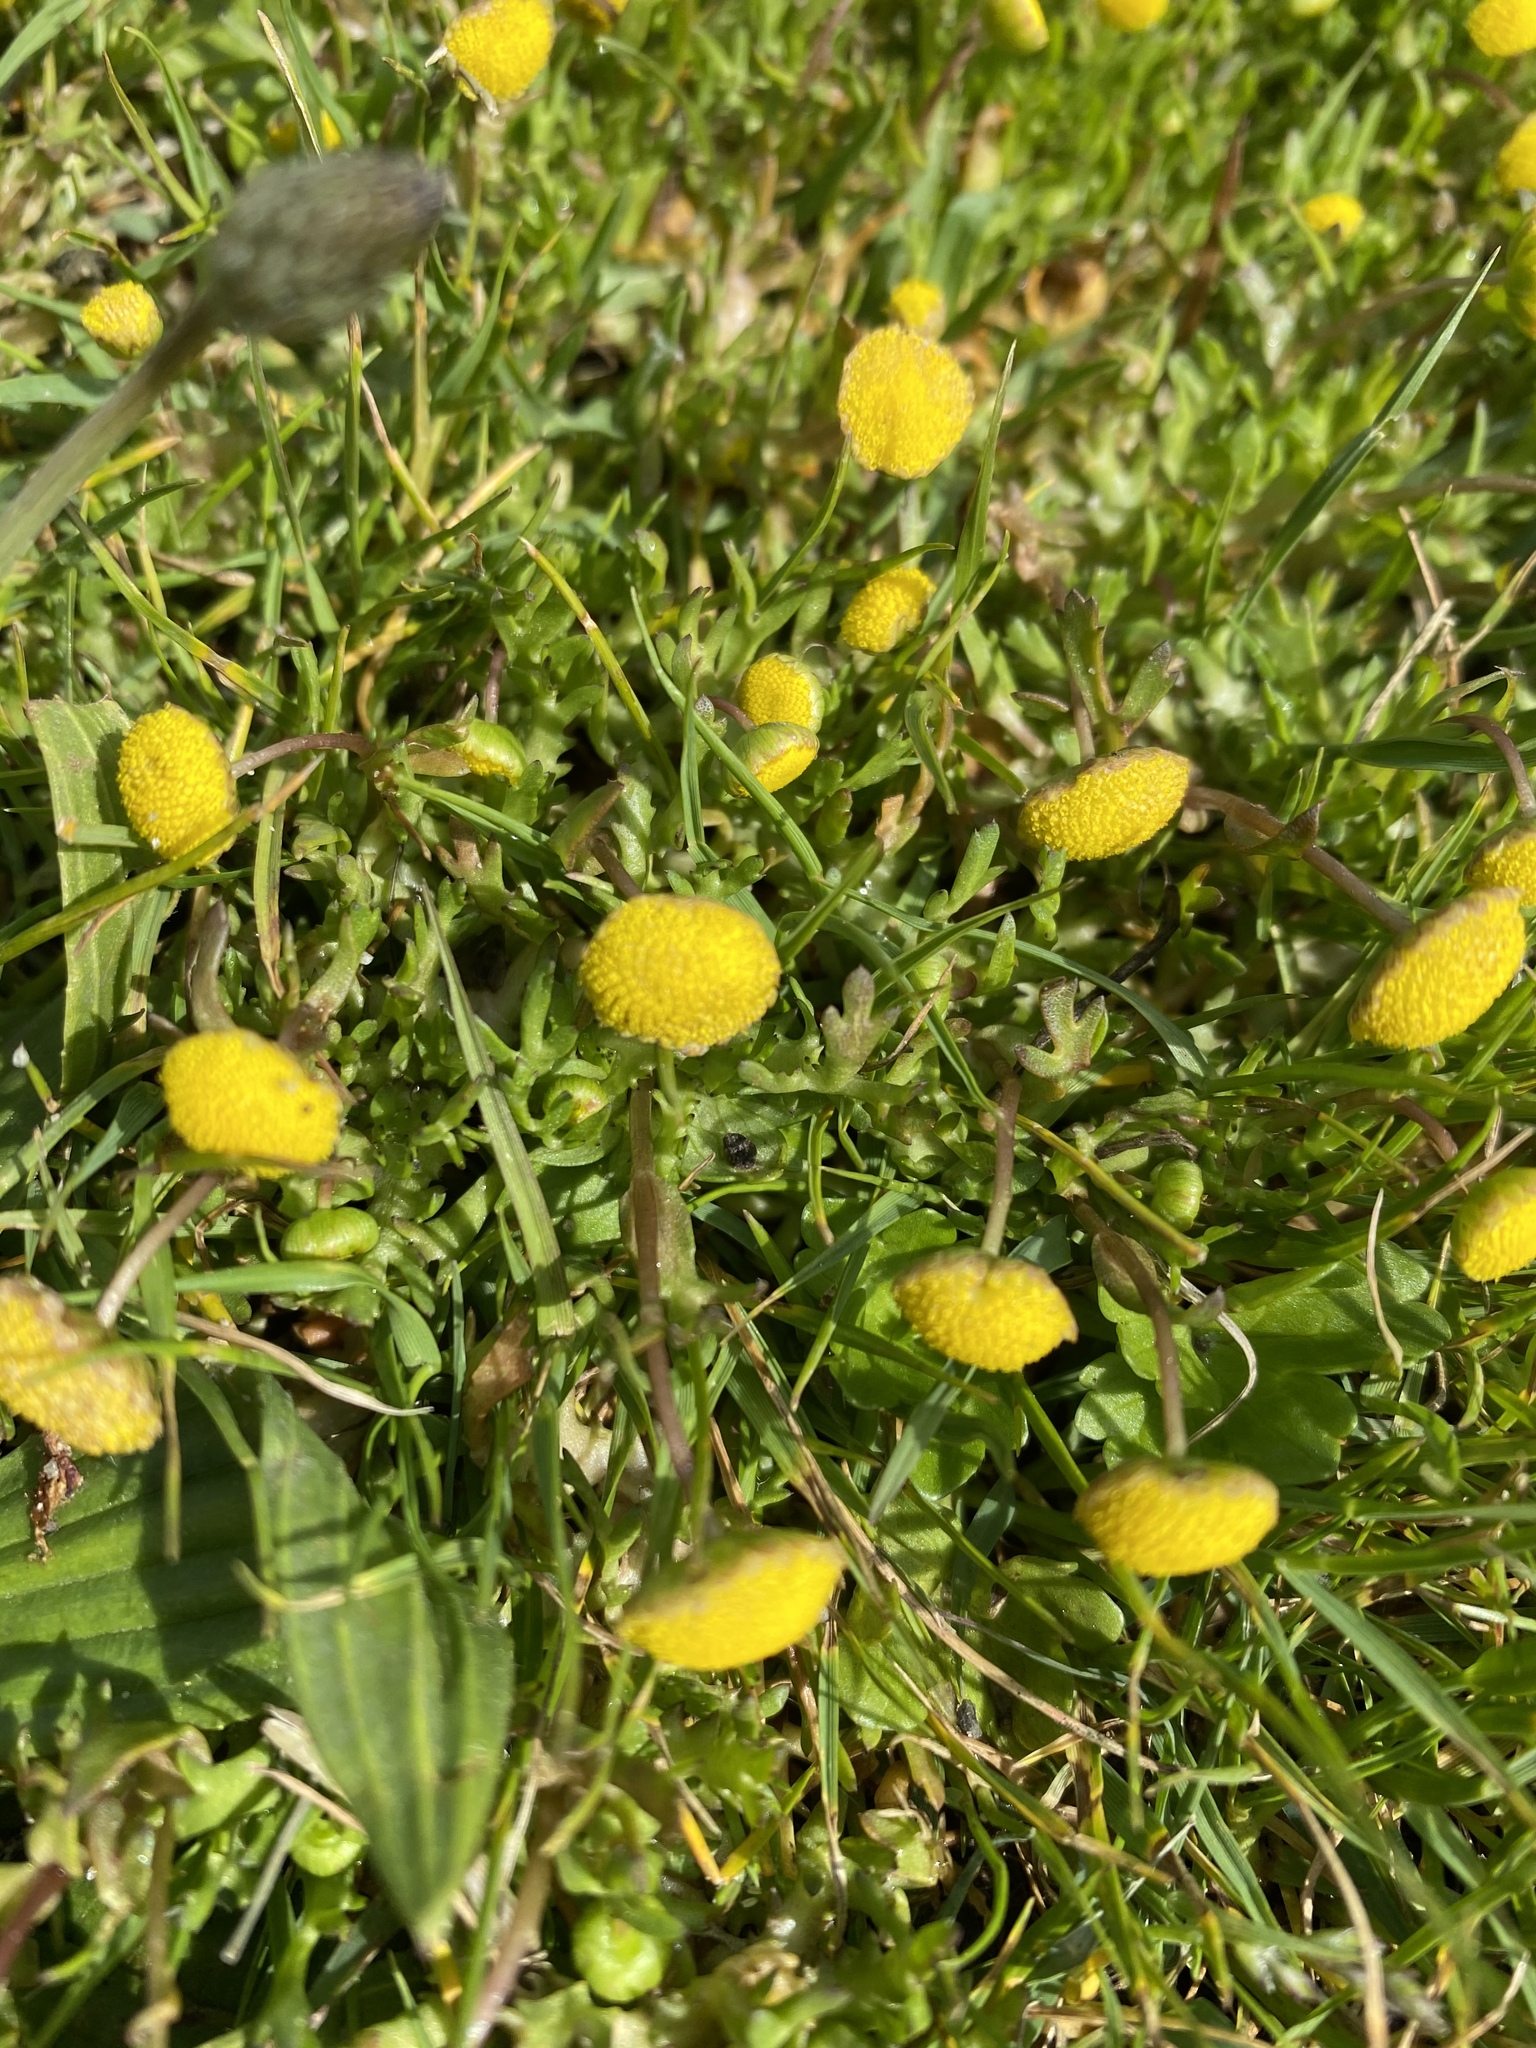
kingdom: Plantae
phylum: Tracheophyta
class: Magnoliopsida
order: Asterales
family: Asteraceae
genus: Cotula
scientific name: Cotula coronopifolia
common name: Buttonweed
